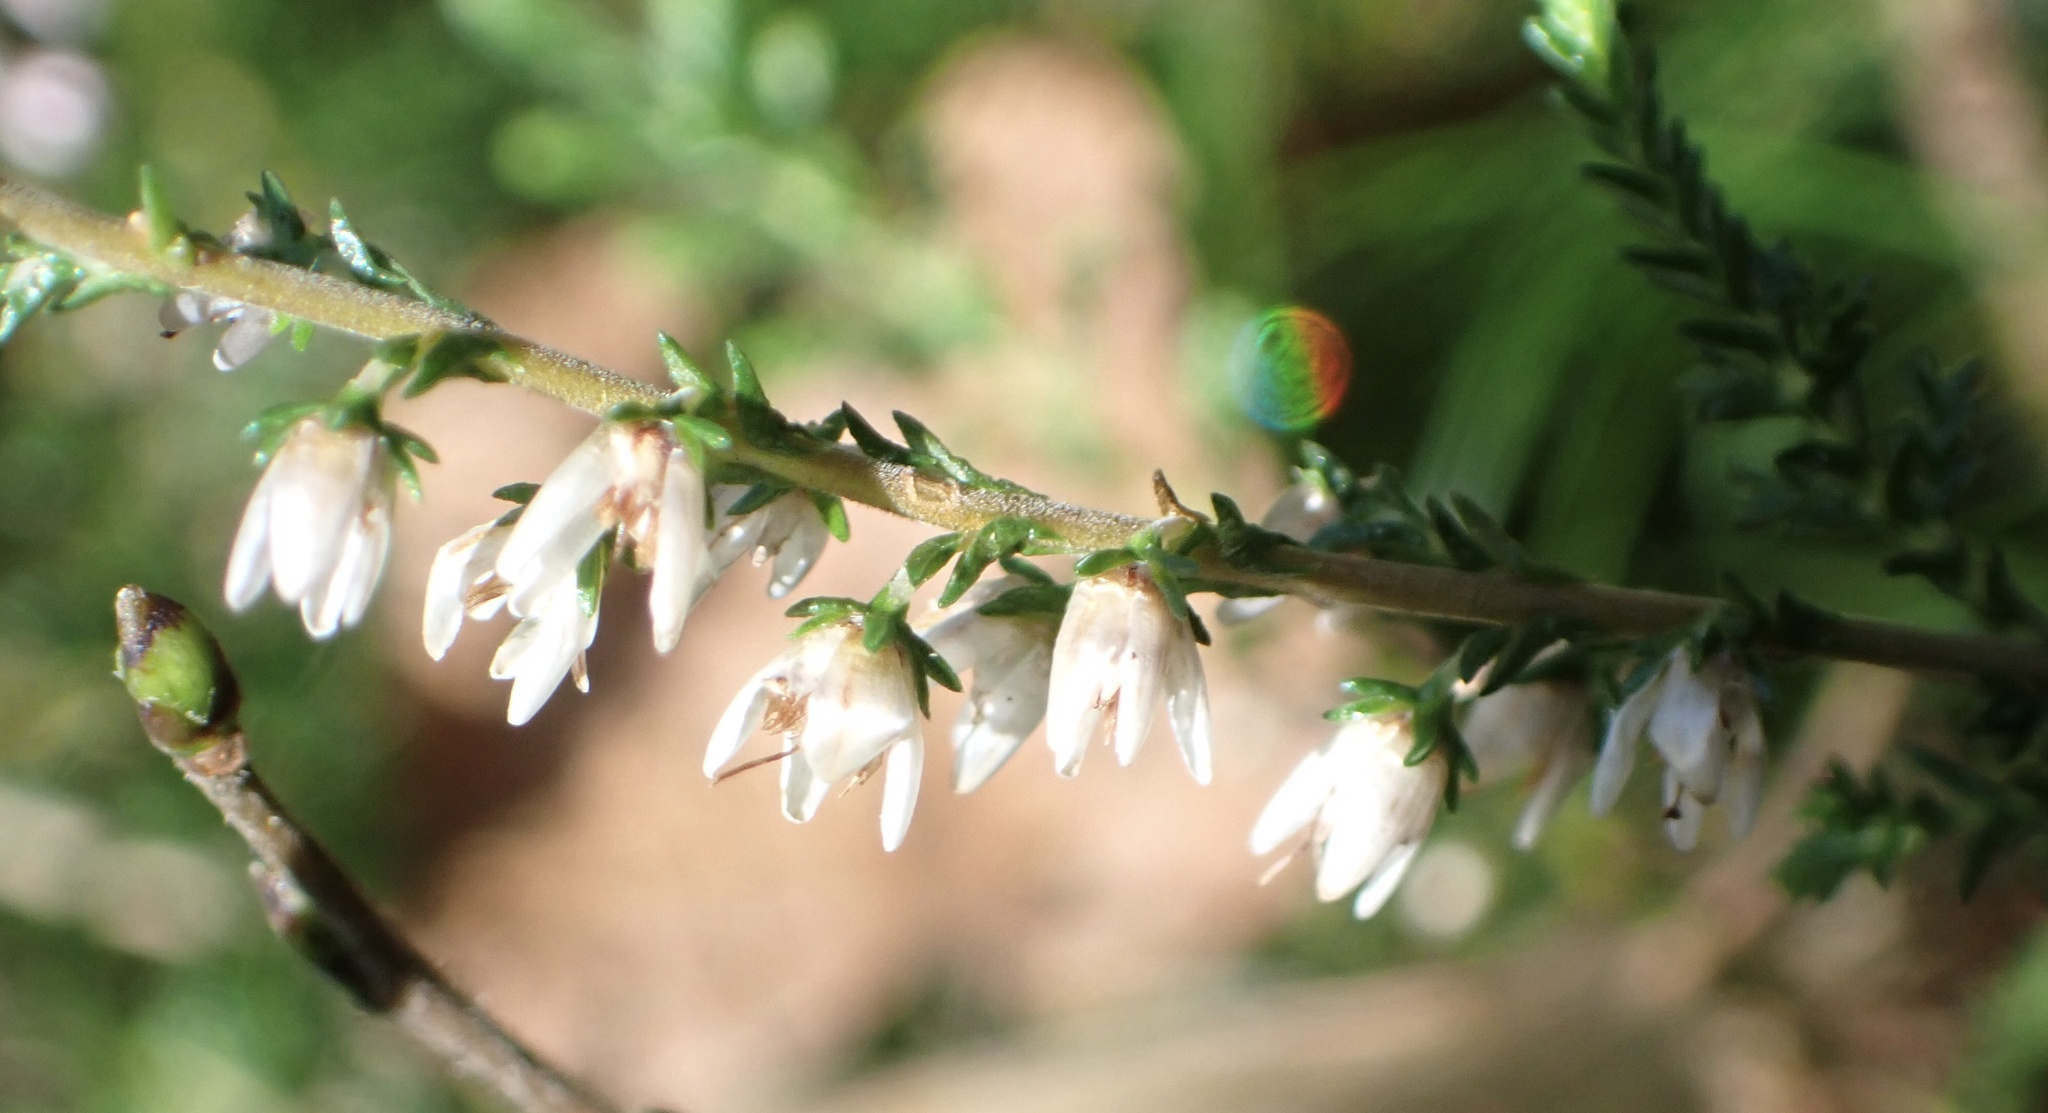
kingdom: Plantae
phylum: Tracheophyta
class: Magnoliopsida
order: Ericales
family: Ericaceae
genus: Calluna
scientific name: Calluna vulgaris
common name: Heather
